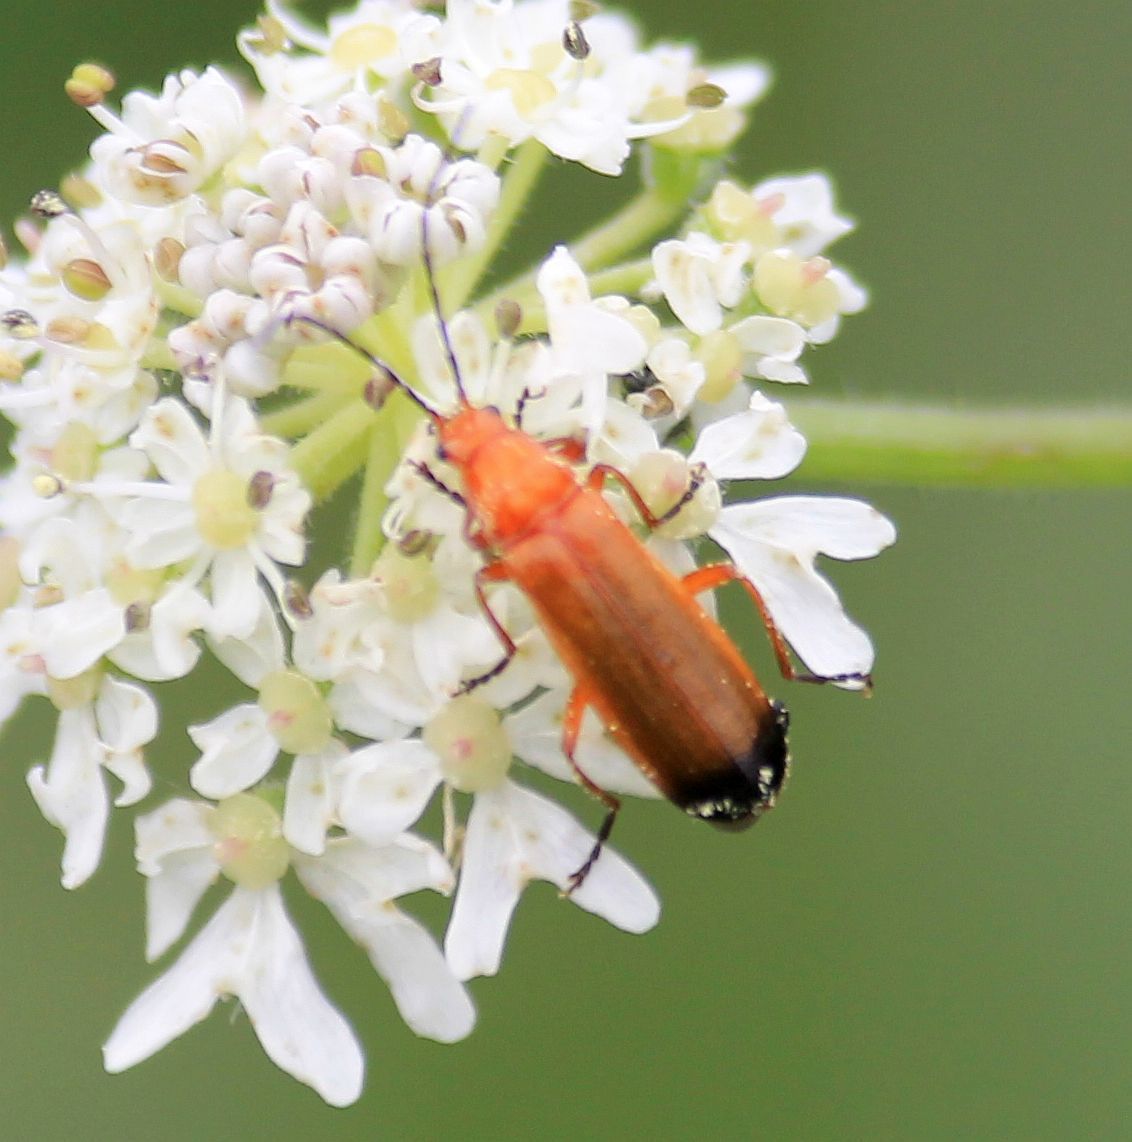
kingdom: Animalia
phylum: Arthropoda
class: Insecta
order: Coleoptera
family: Cantharidae
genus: Rhagonycha
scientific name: Rhagonycha fulva
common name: Common red soldier beetle
